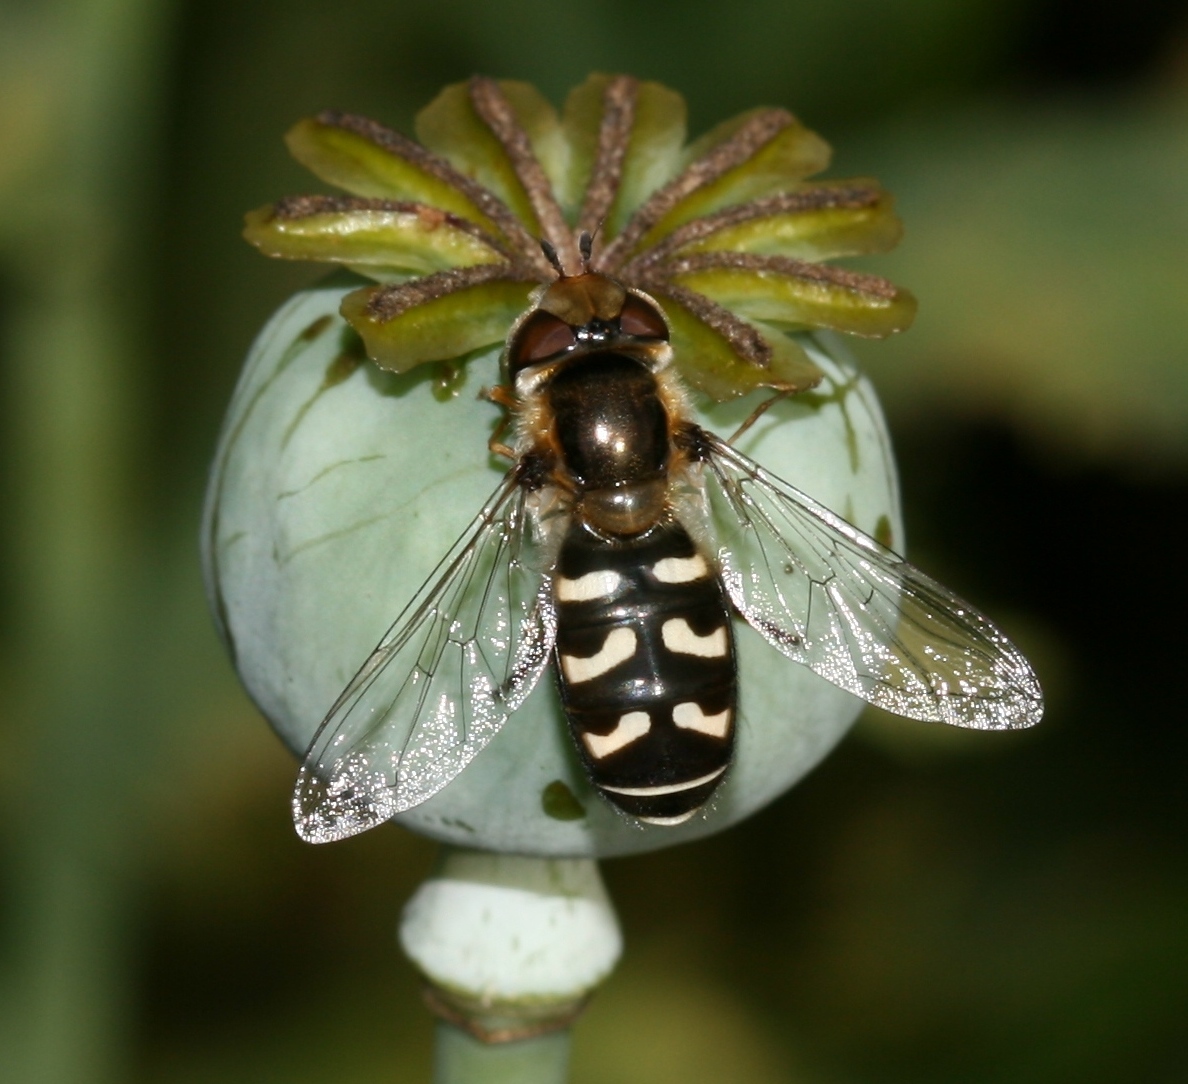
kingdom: Animalia
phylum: Arthropoda
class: Insecta
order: Diptera
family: Syrphidae
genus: Scaeva
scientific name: Scaeva pyrastri
